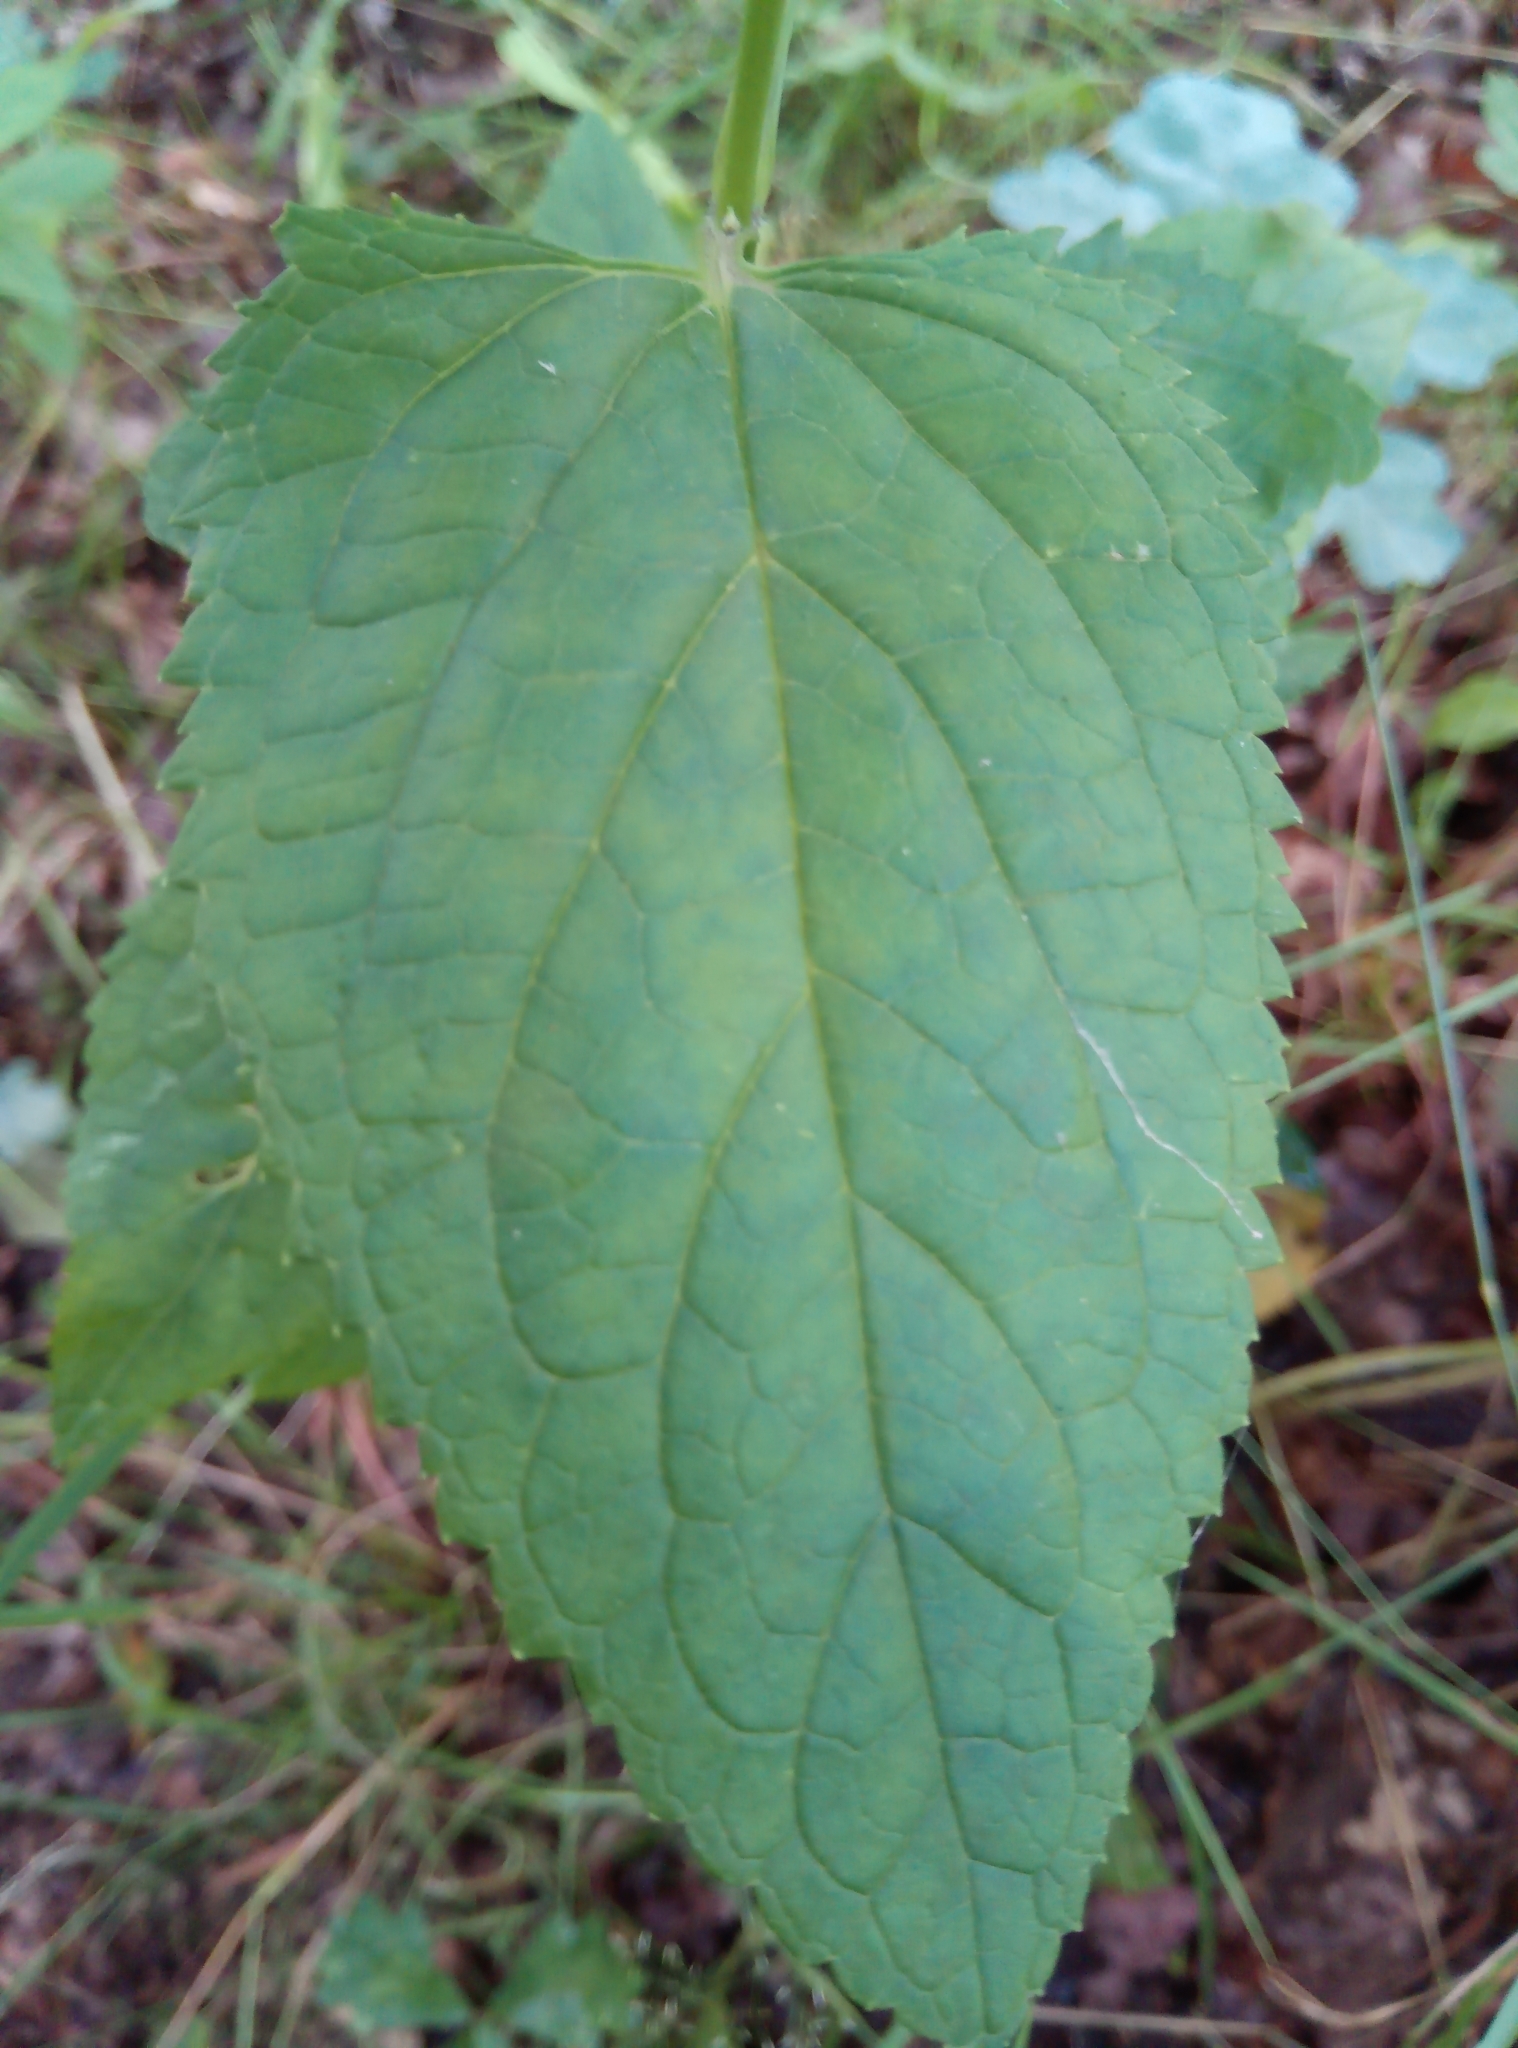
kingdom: Plantae
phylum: Tracheophyta
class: Magnoliopsida
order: Lamiales
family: Scrophulariaceae
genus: Scrophularia
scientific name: Scrophularia nodosa
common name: Common figwort
